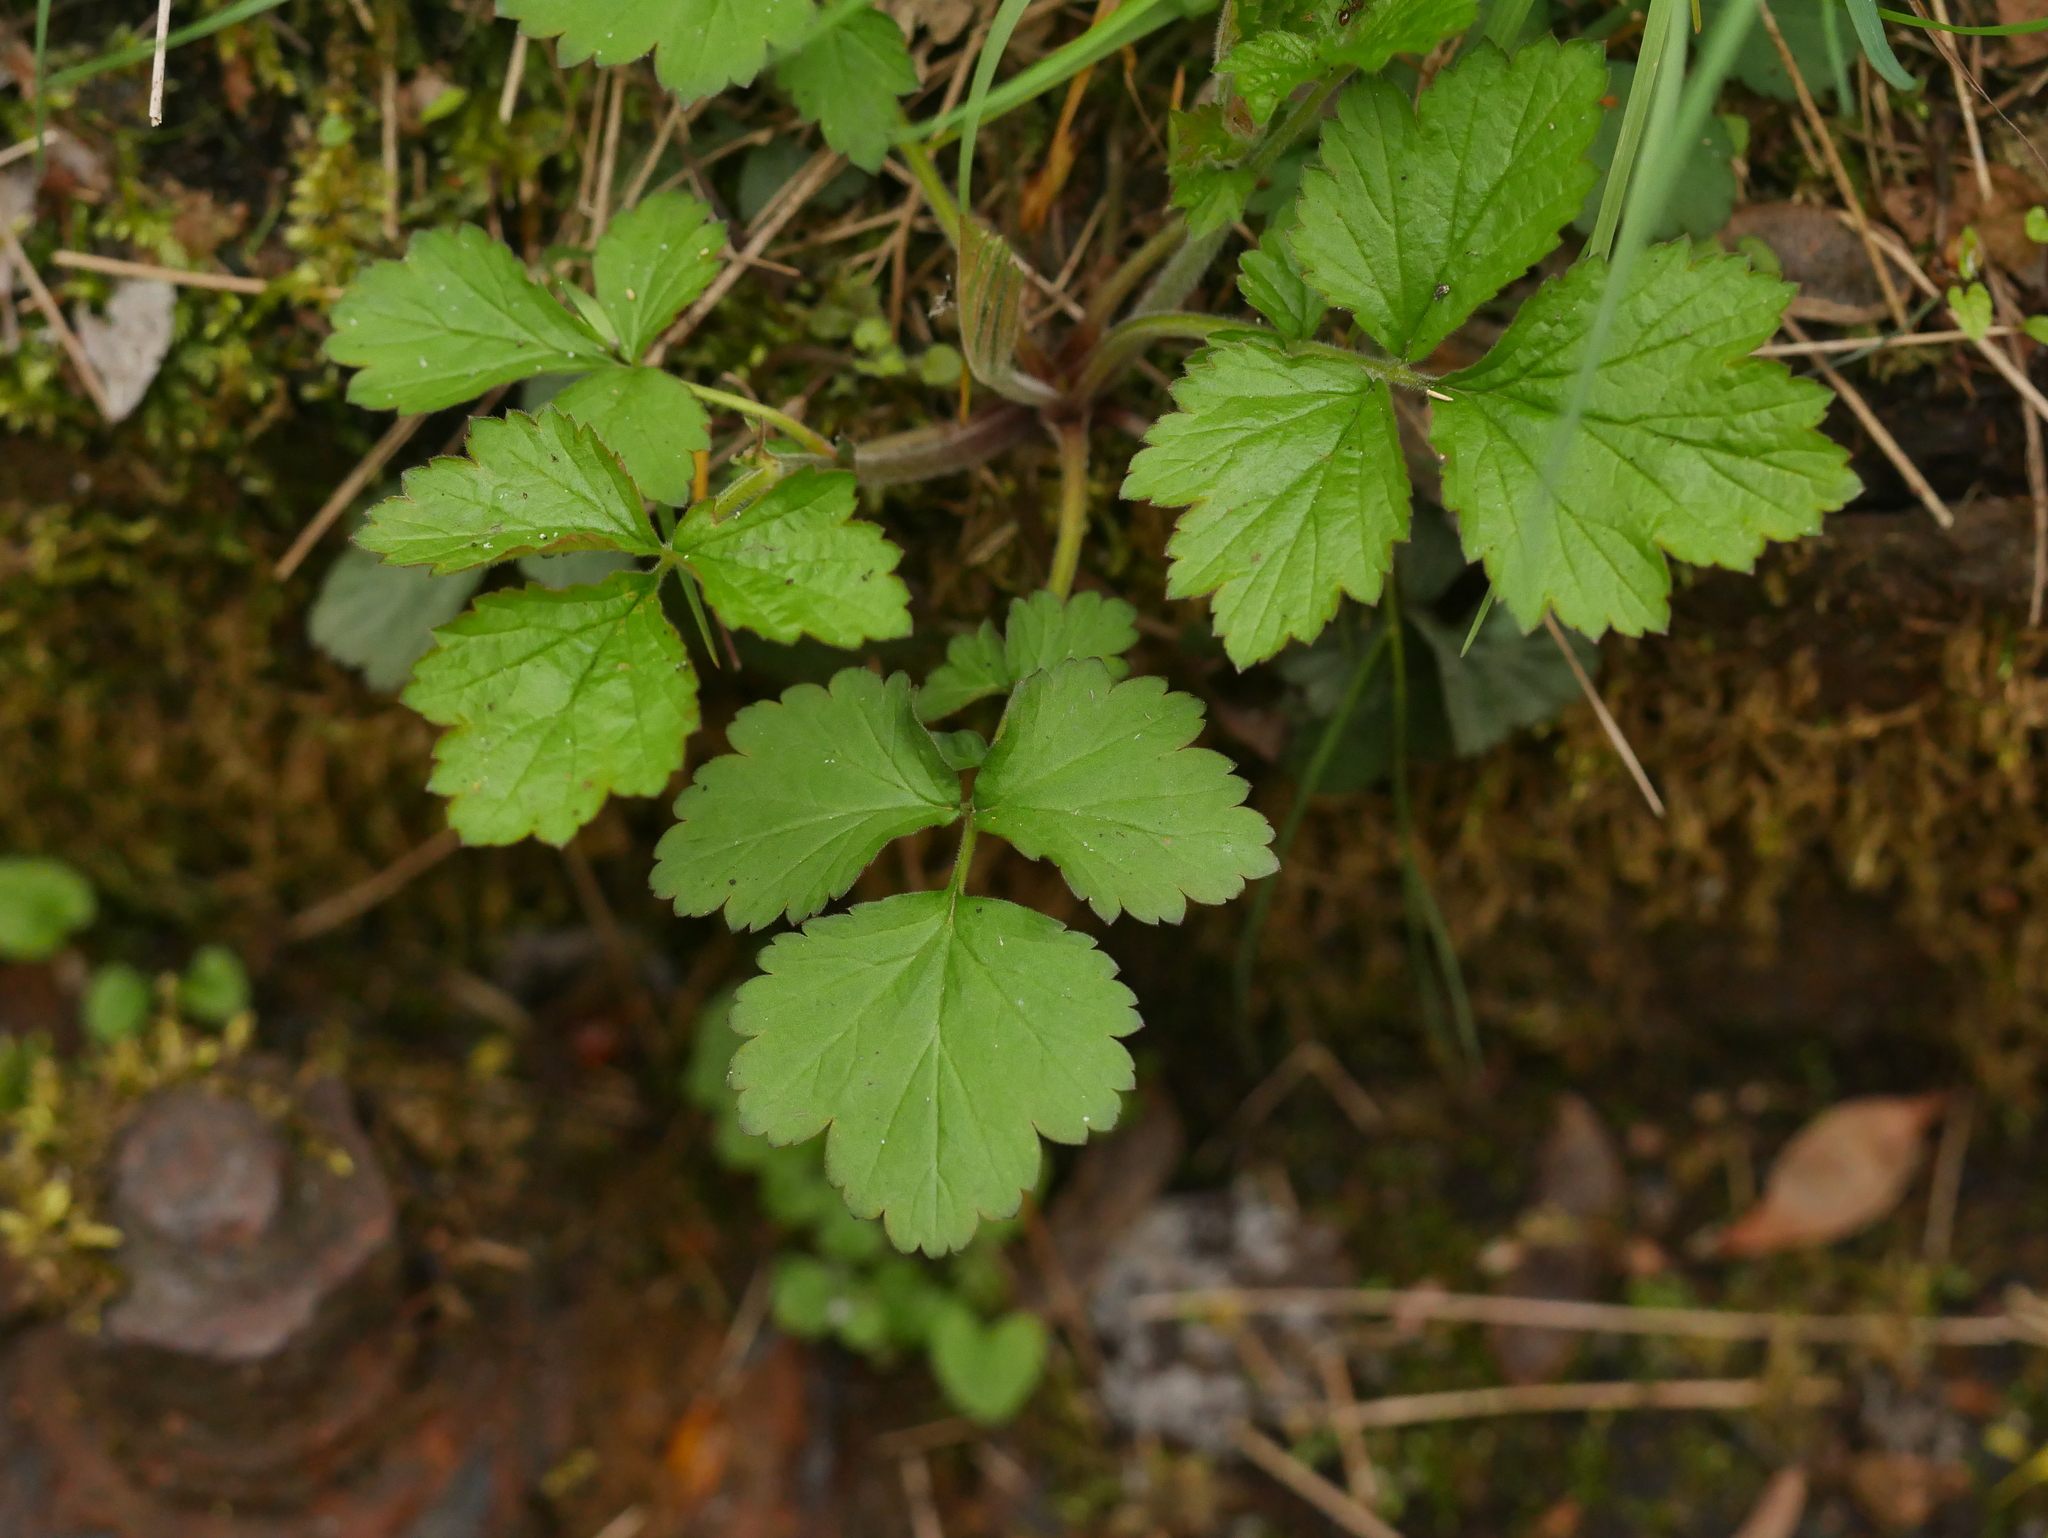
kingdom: Plantae
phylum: Tracheophyta
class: Magnoliopsida
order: Rosales
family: Rosaceae
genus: Geum
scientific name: Geum urbanum
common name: Wood avens
